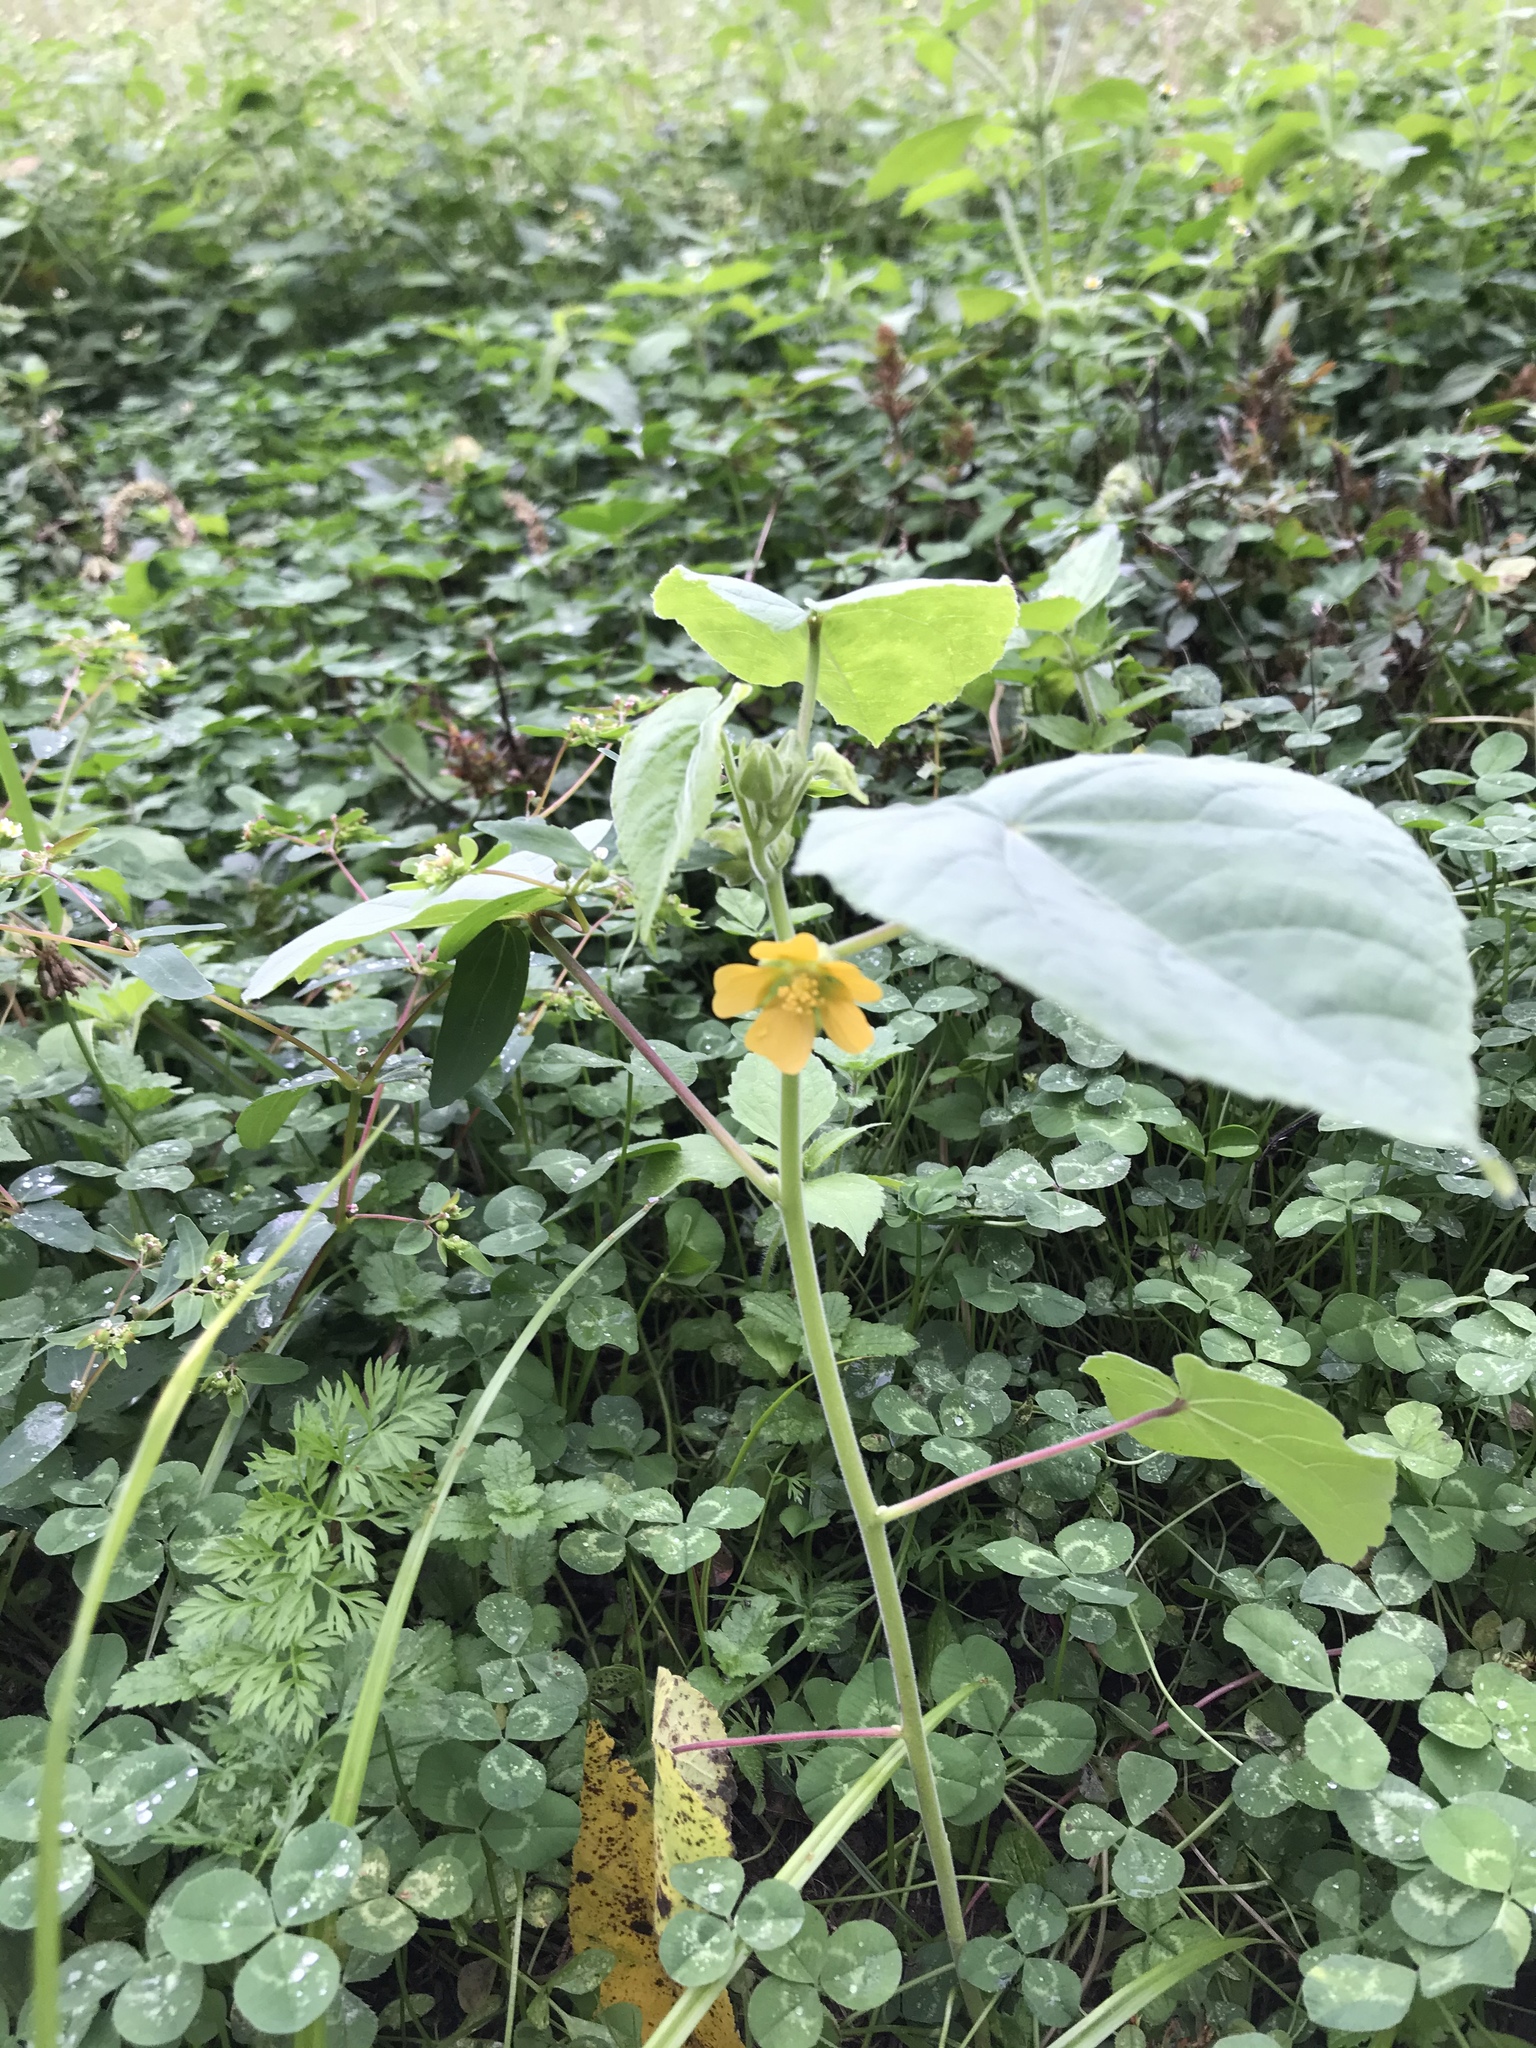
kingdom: Plantae
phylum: Tracheophyta
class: Magnoliopsida
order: Malvales
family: Malvaceae
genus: Abutilon
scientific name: Abutilon theophrasti
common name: Velvetleaf
